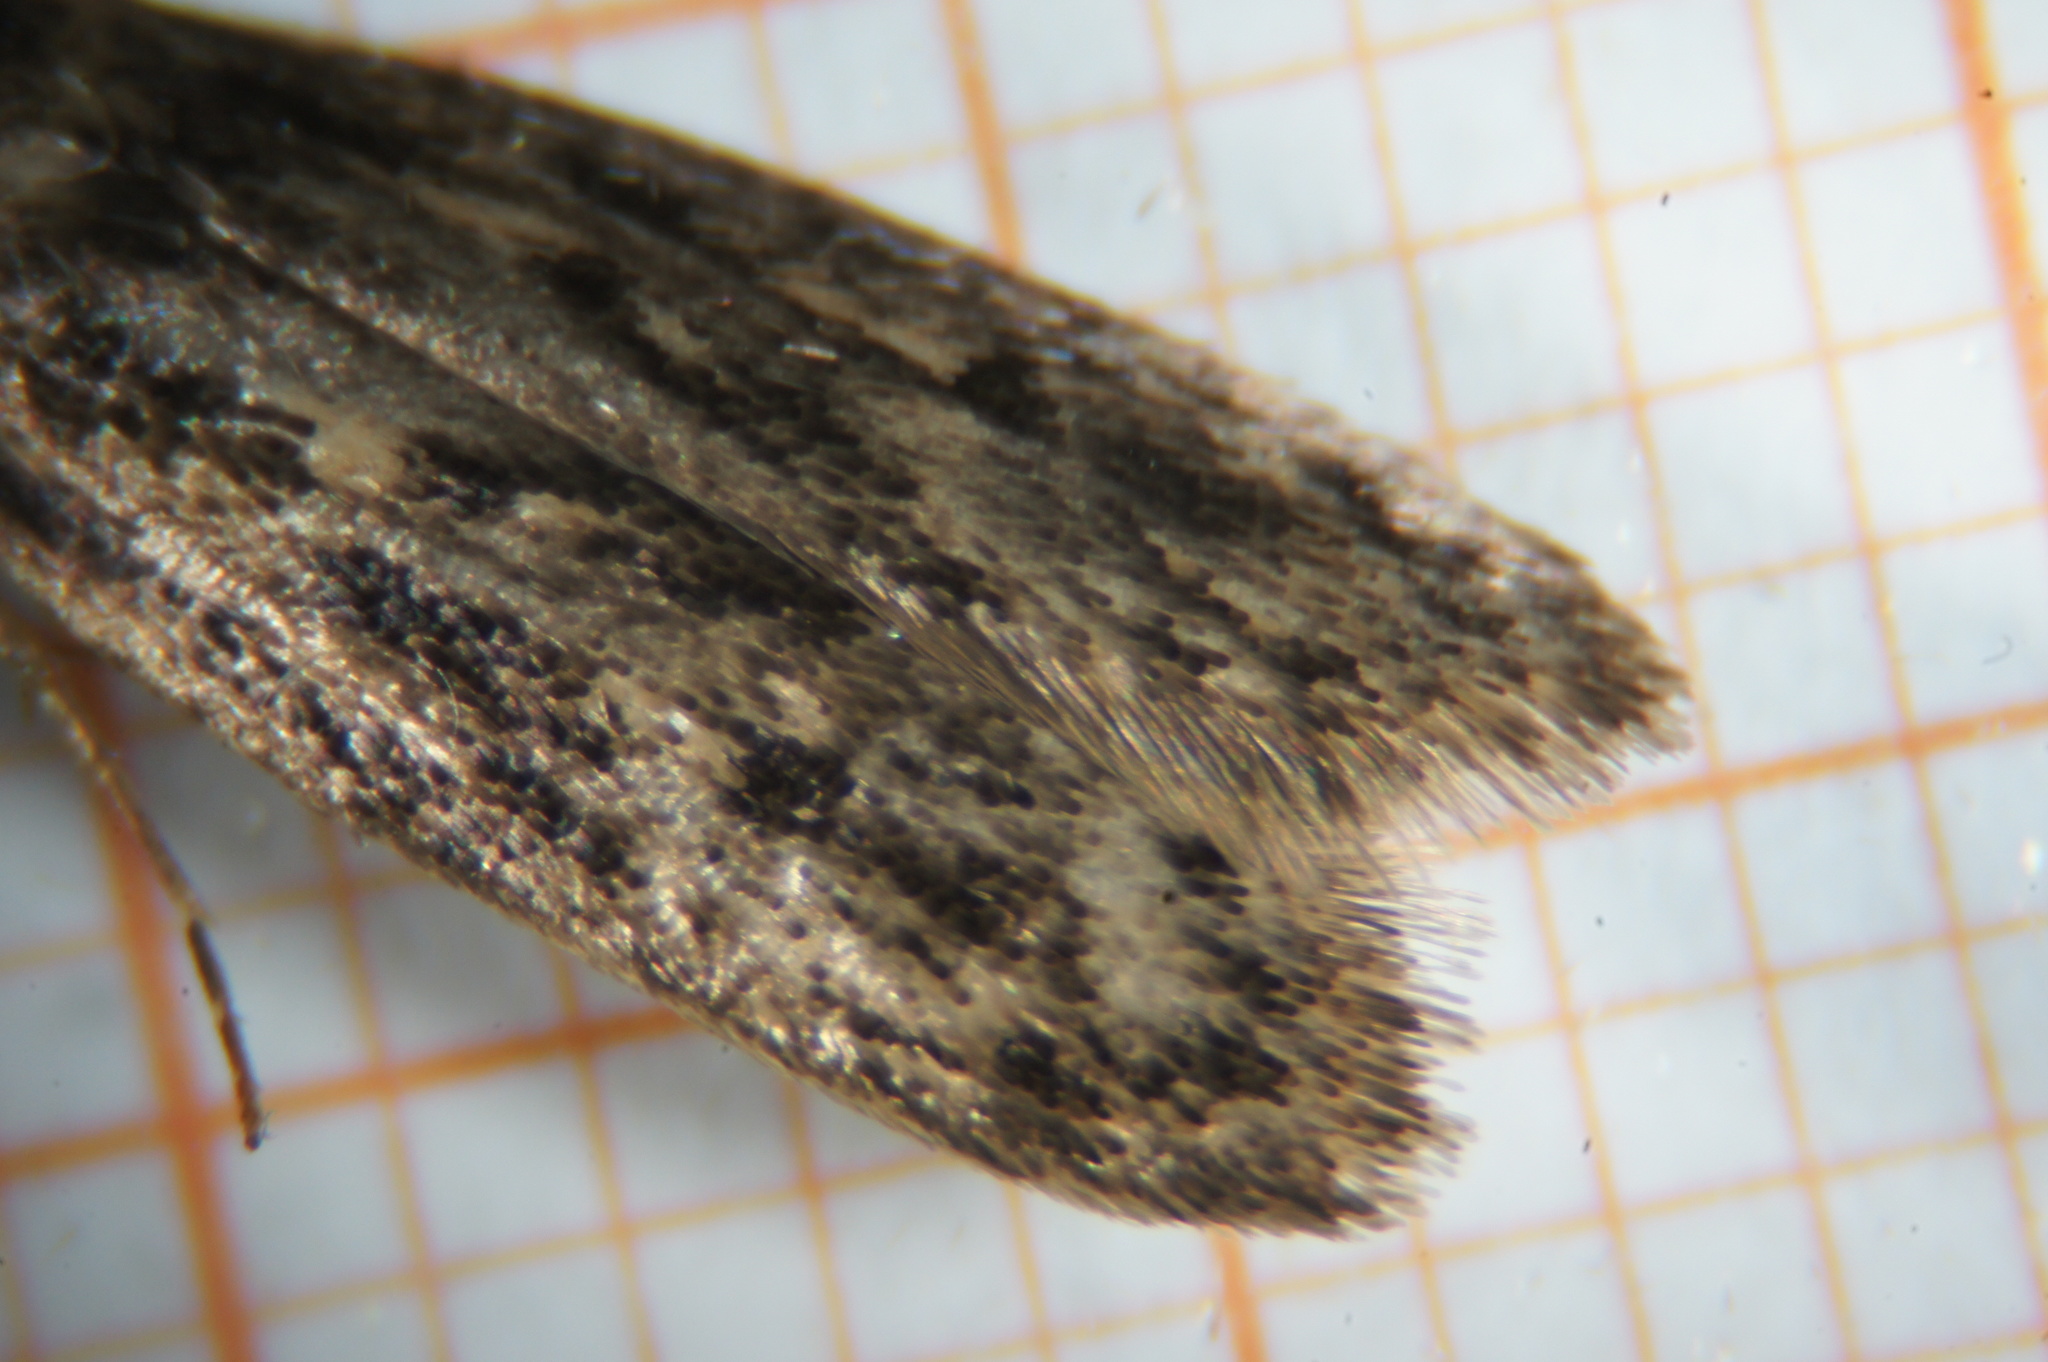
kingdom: Animalia
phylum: Arthropoda
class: Insecta
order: Lepidoptera
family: Oecophoridae
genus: Hofmannophila
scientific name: Hofmannophila pseudospretella
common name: Brown house moth
